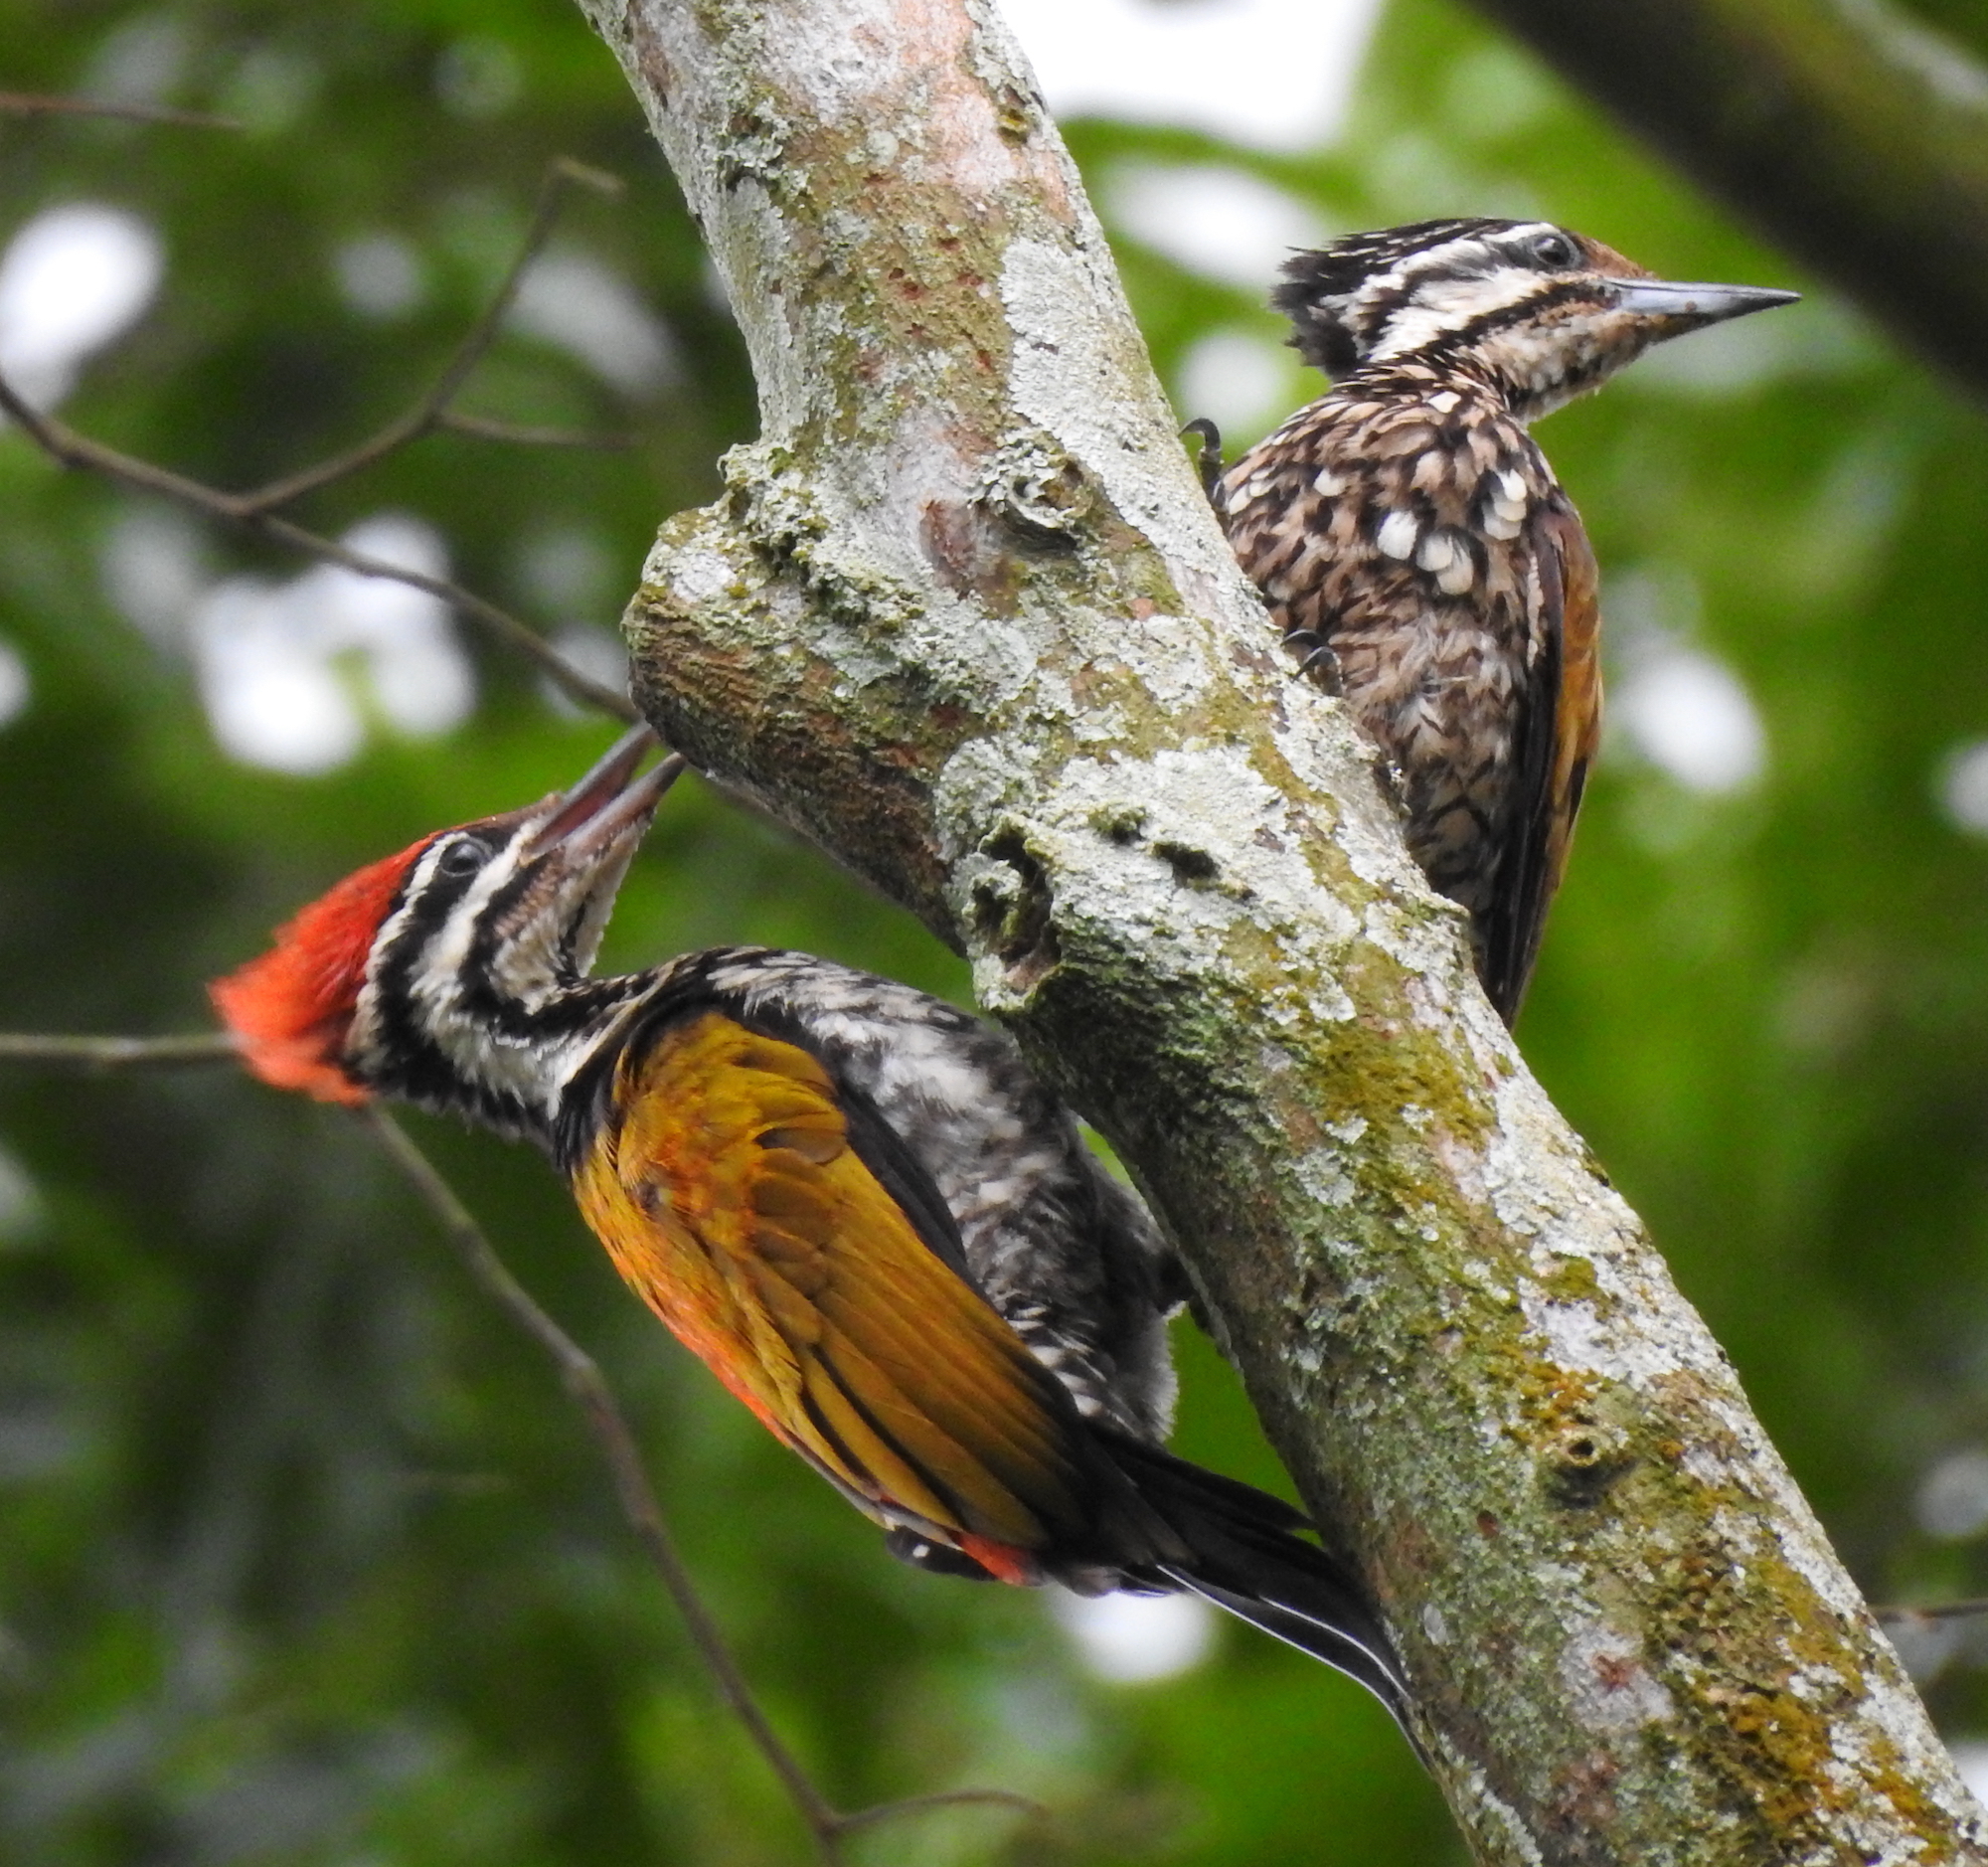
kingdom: Animalia
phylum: Chordata
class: Aves
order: Piciformes
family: Picidae
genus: Dinopium
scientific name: Dinopium javanense
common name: Common flameback
